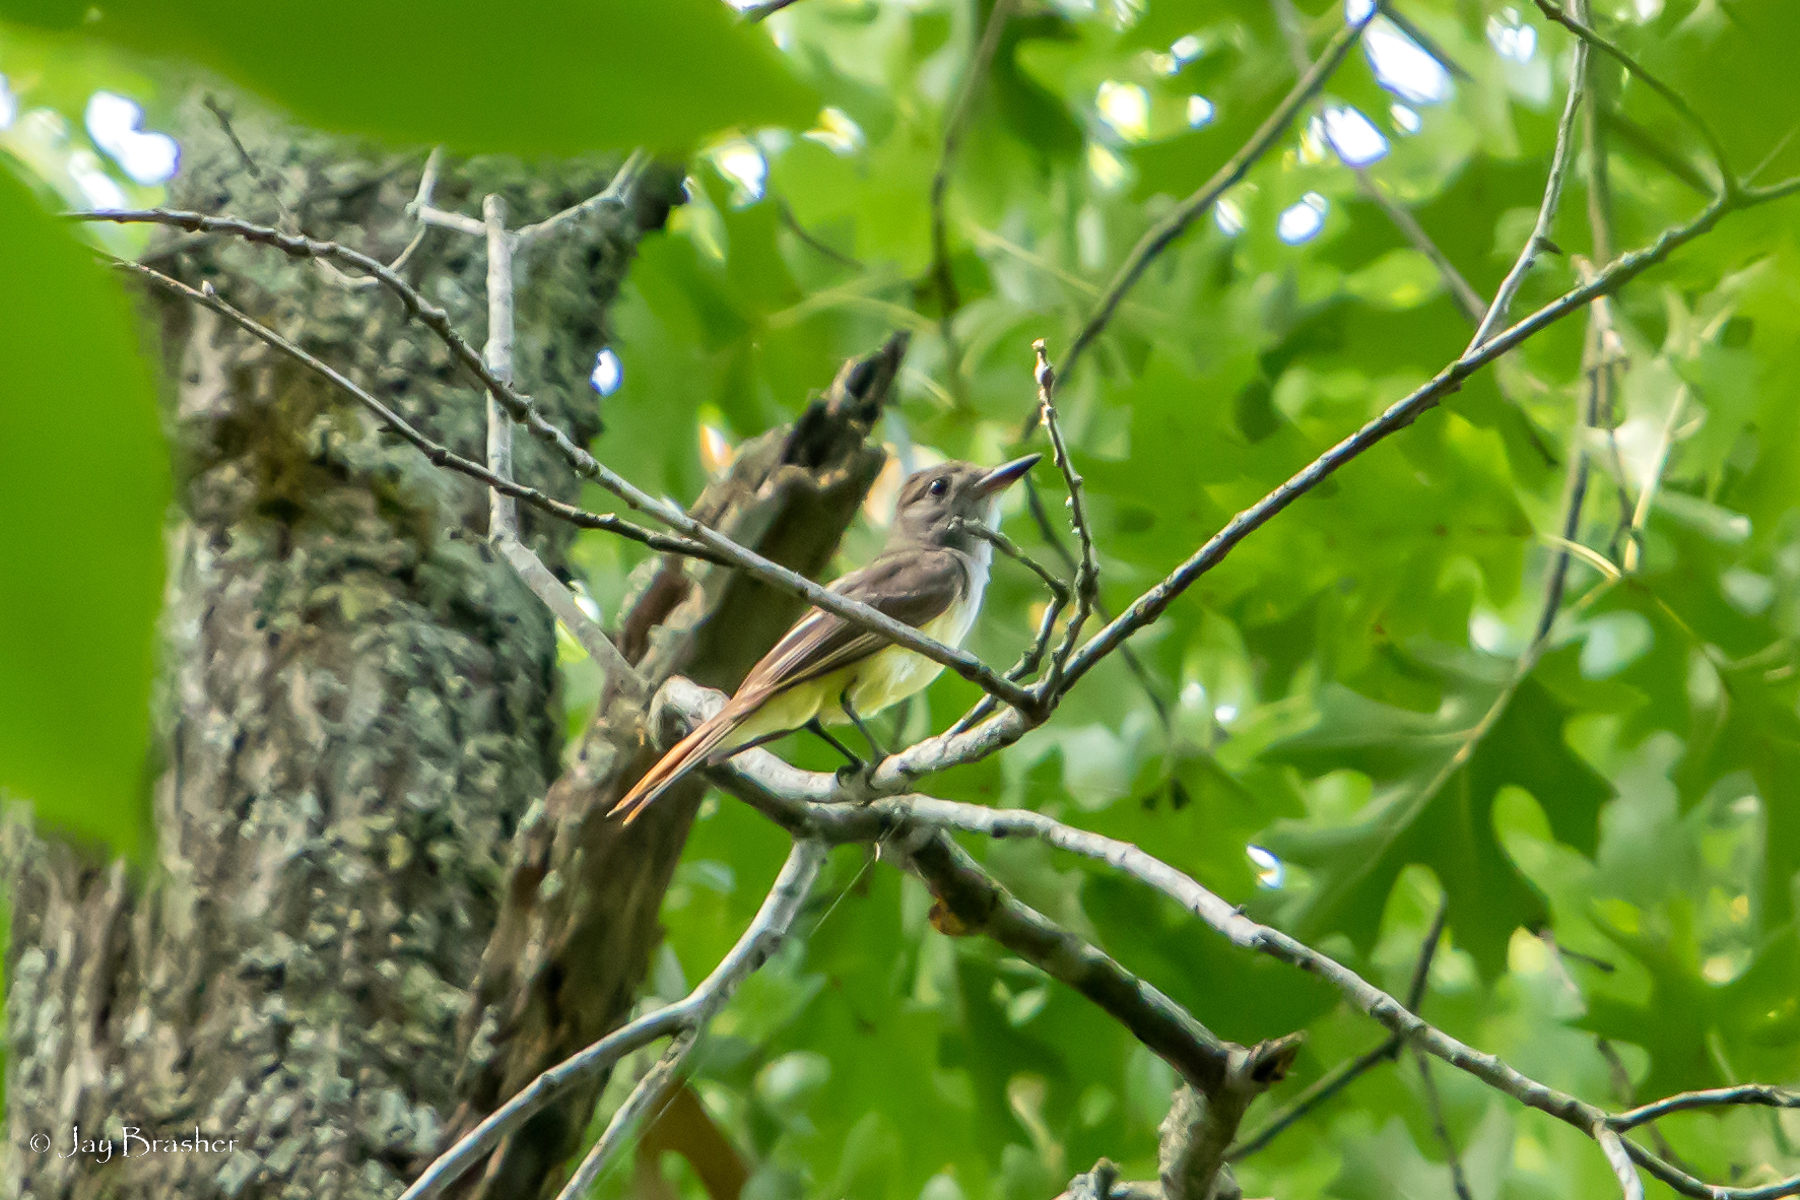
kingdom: Animalia
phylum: Chordata
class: Aves
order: Passeriformes
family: Tyrannidae
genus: Myiarchus
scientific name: Myiarchus crinitus
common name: Great crested flycatcher
